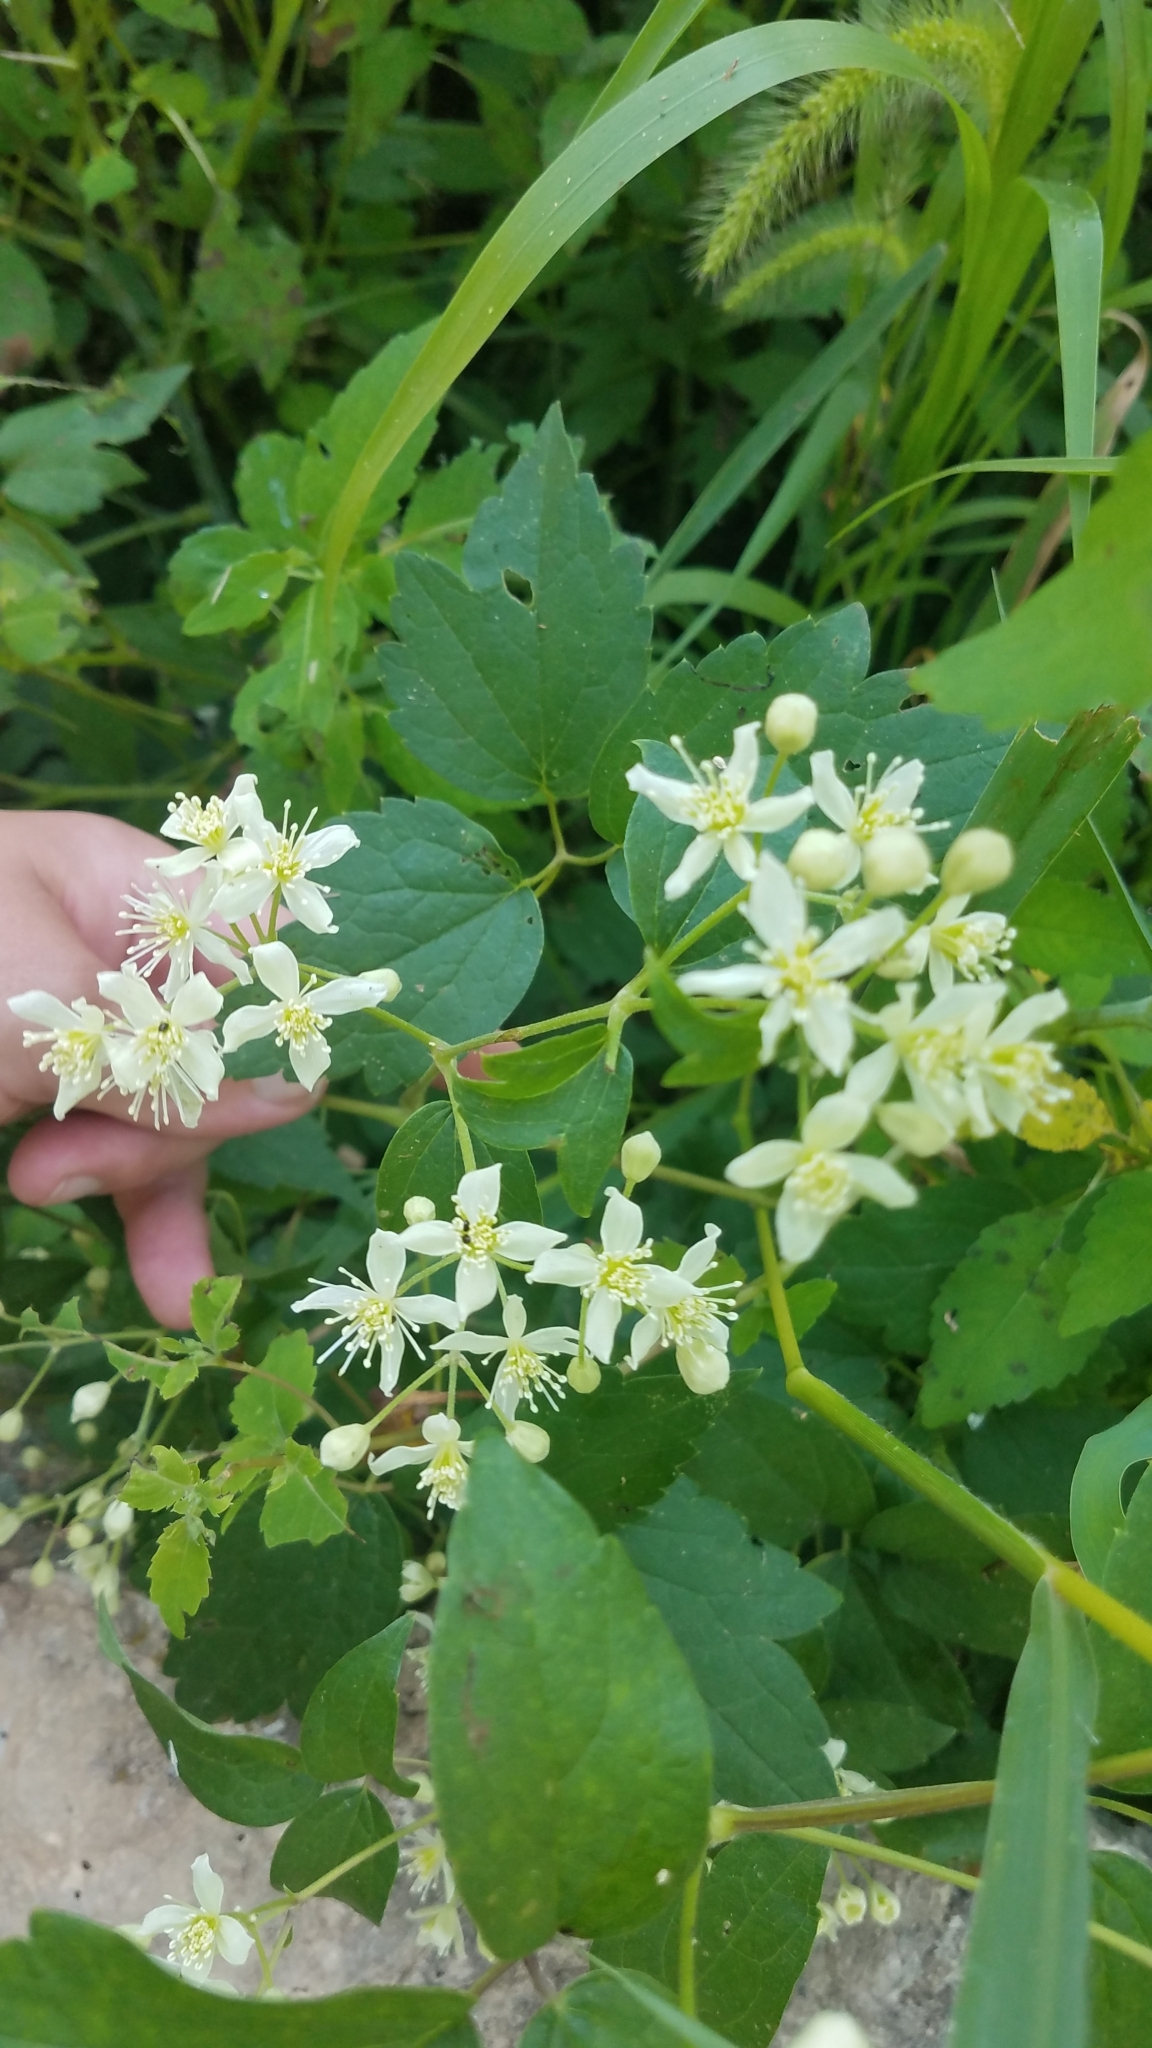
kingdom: Plantae
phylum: Tracheophyta
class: Magnoliopsida
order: Ranunculales
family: Ranunculaceae
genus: Clematis
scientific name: Clematis virginiana
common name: Virgin's-bower
